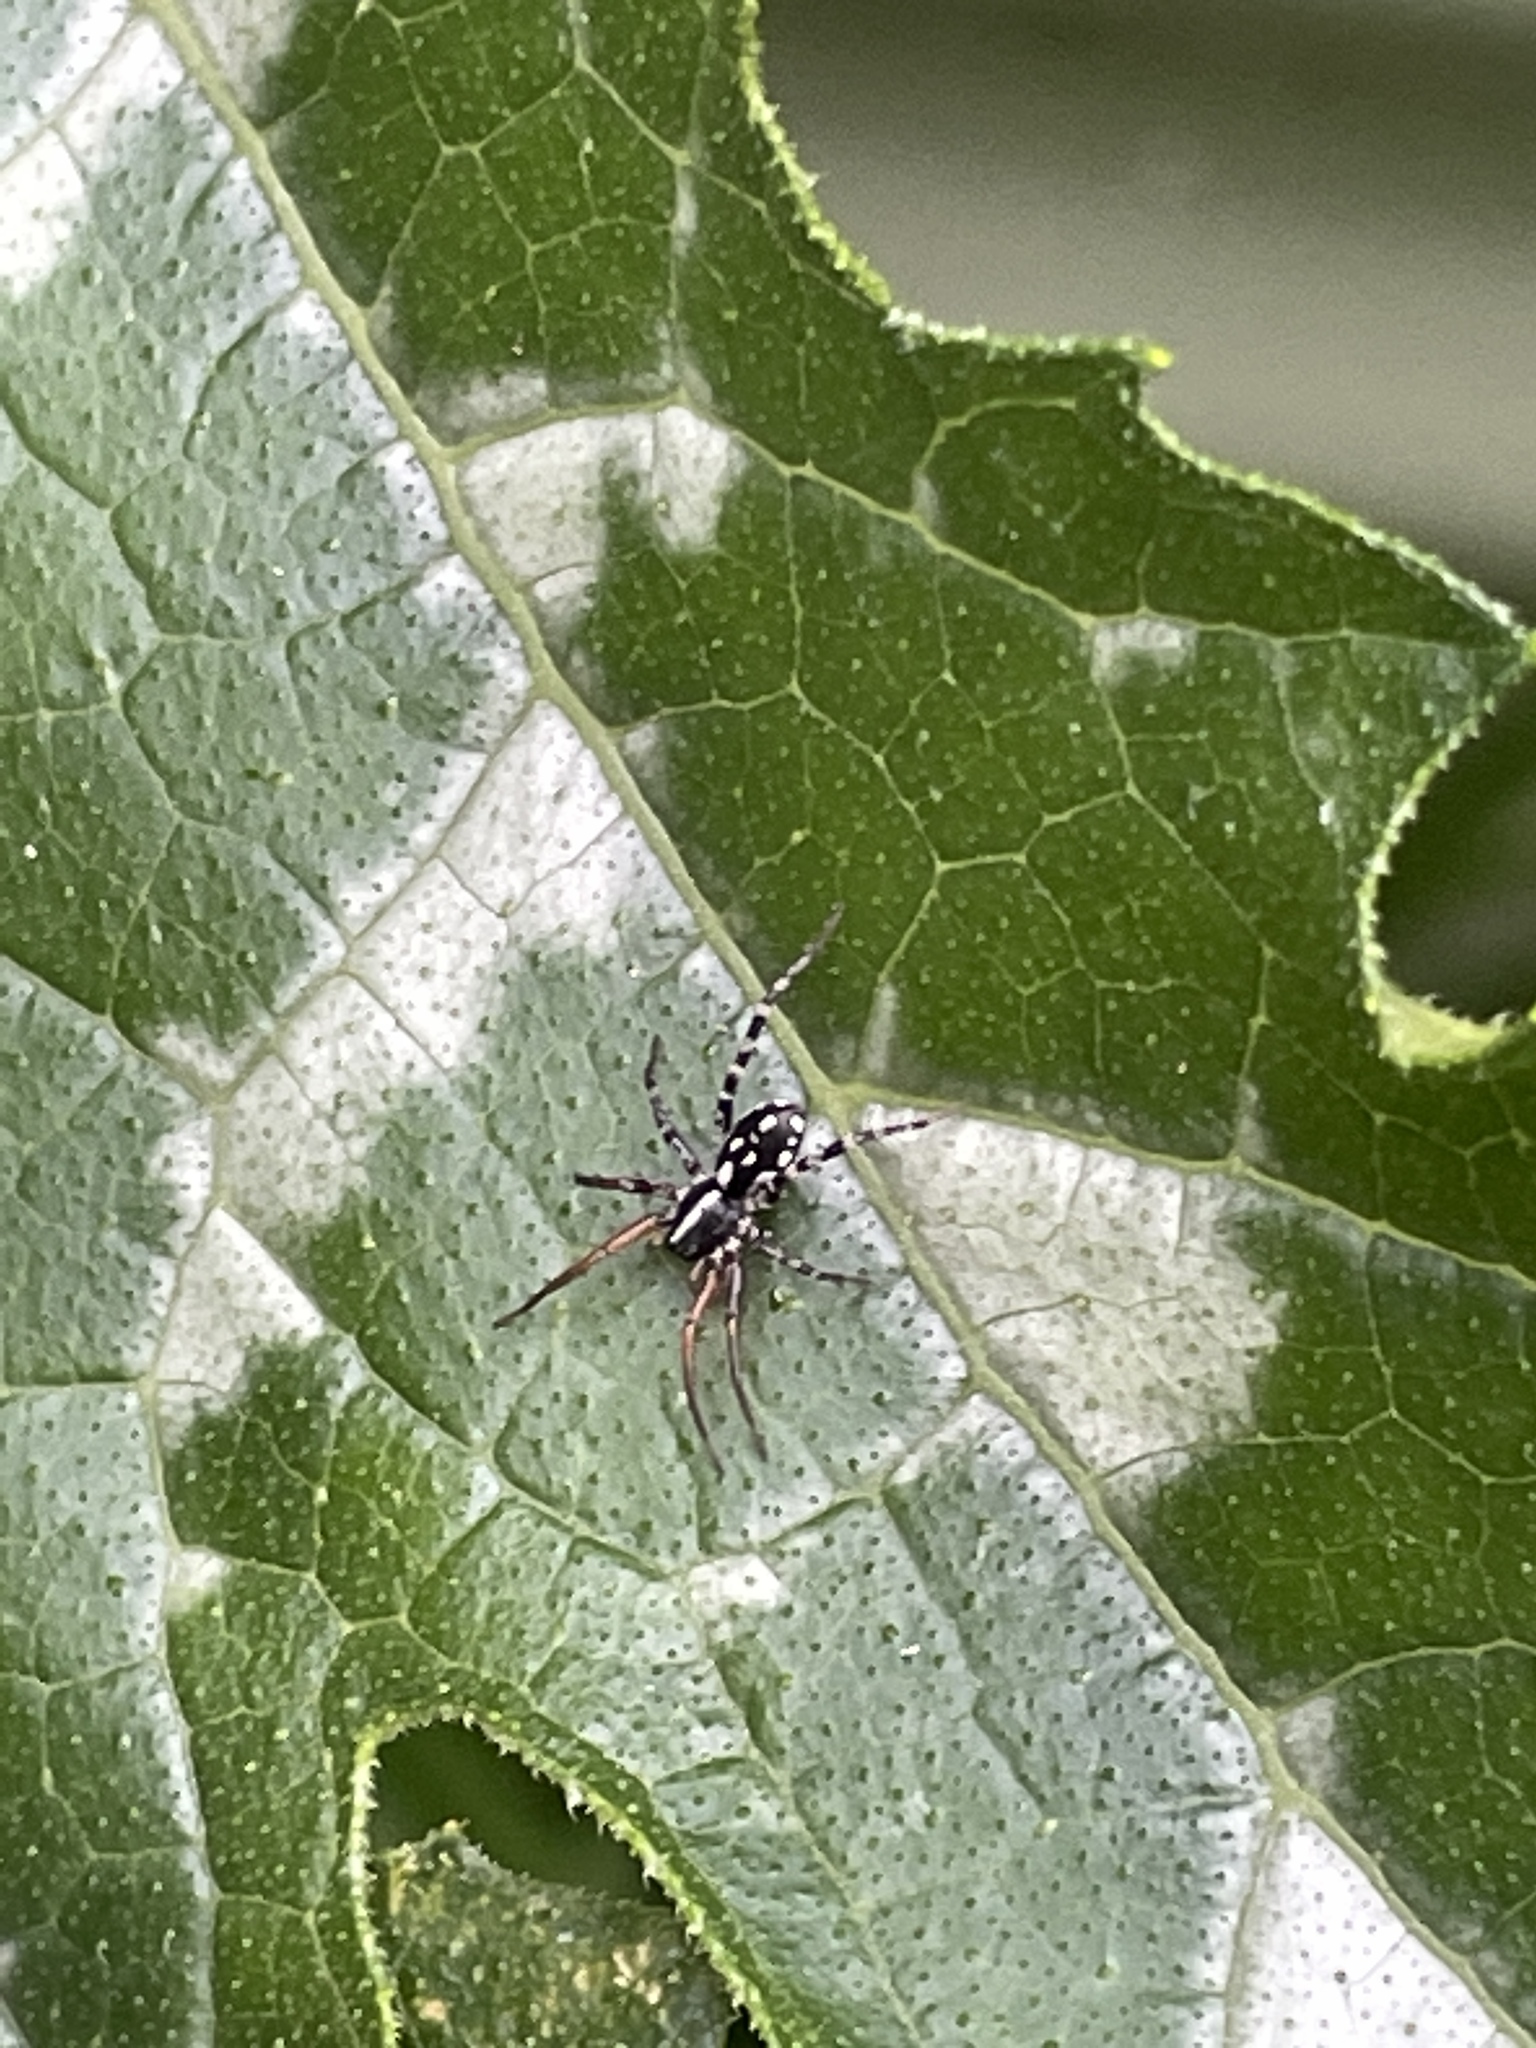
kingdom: Animalia
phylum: Arthropoda
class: Arachnida
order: Araneae
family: Corinnidae
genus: Nyssus
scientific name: Nyssus coloripes
